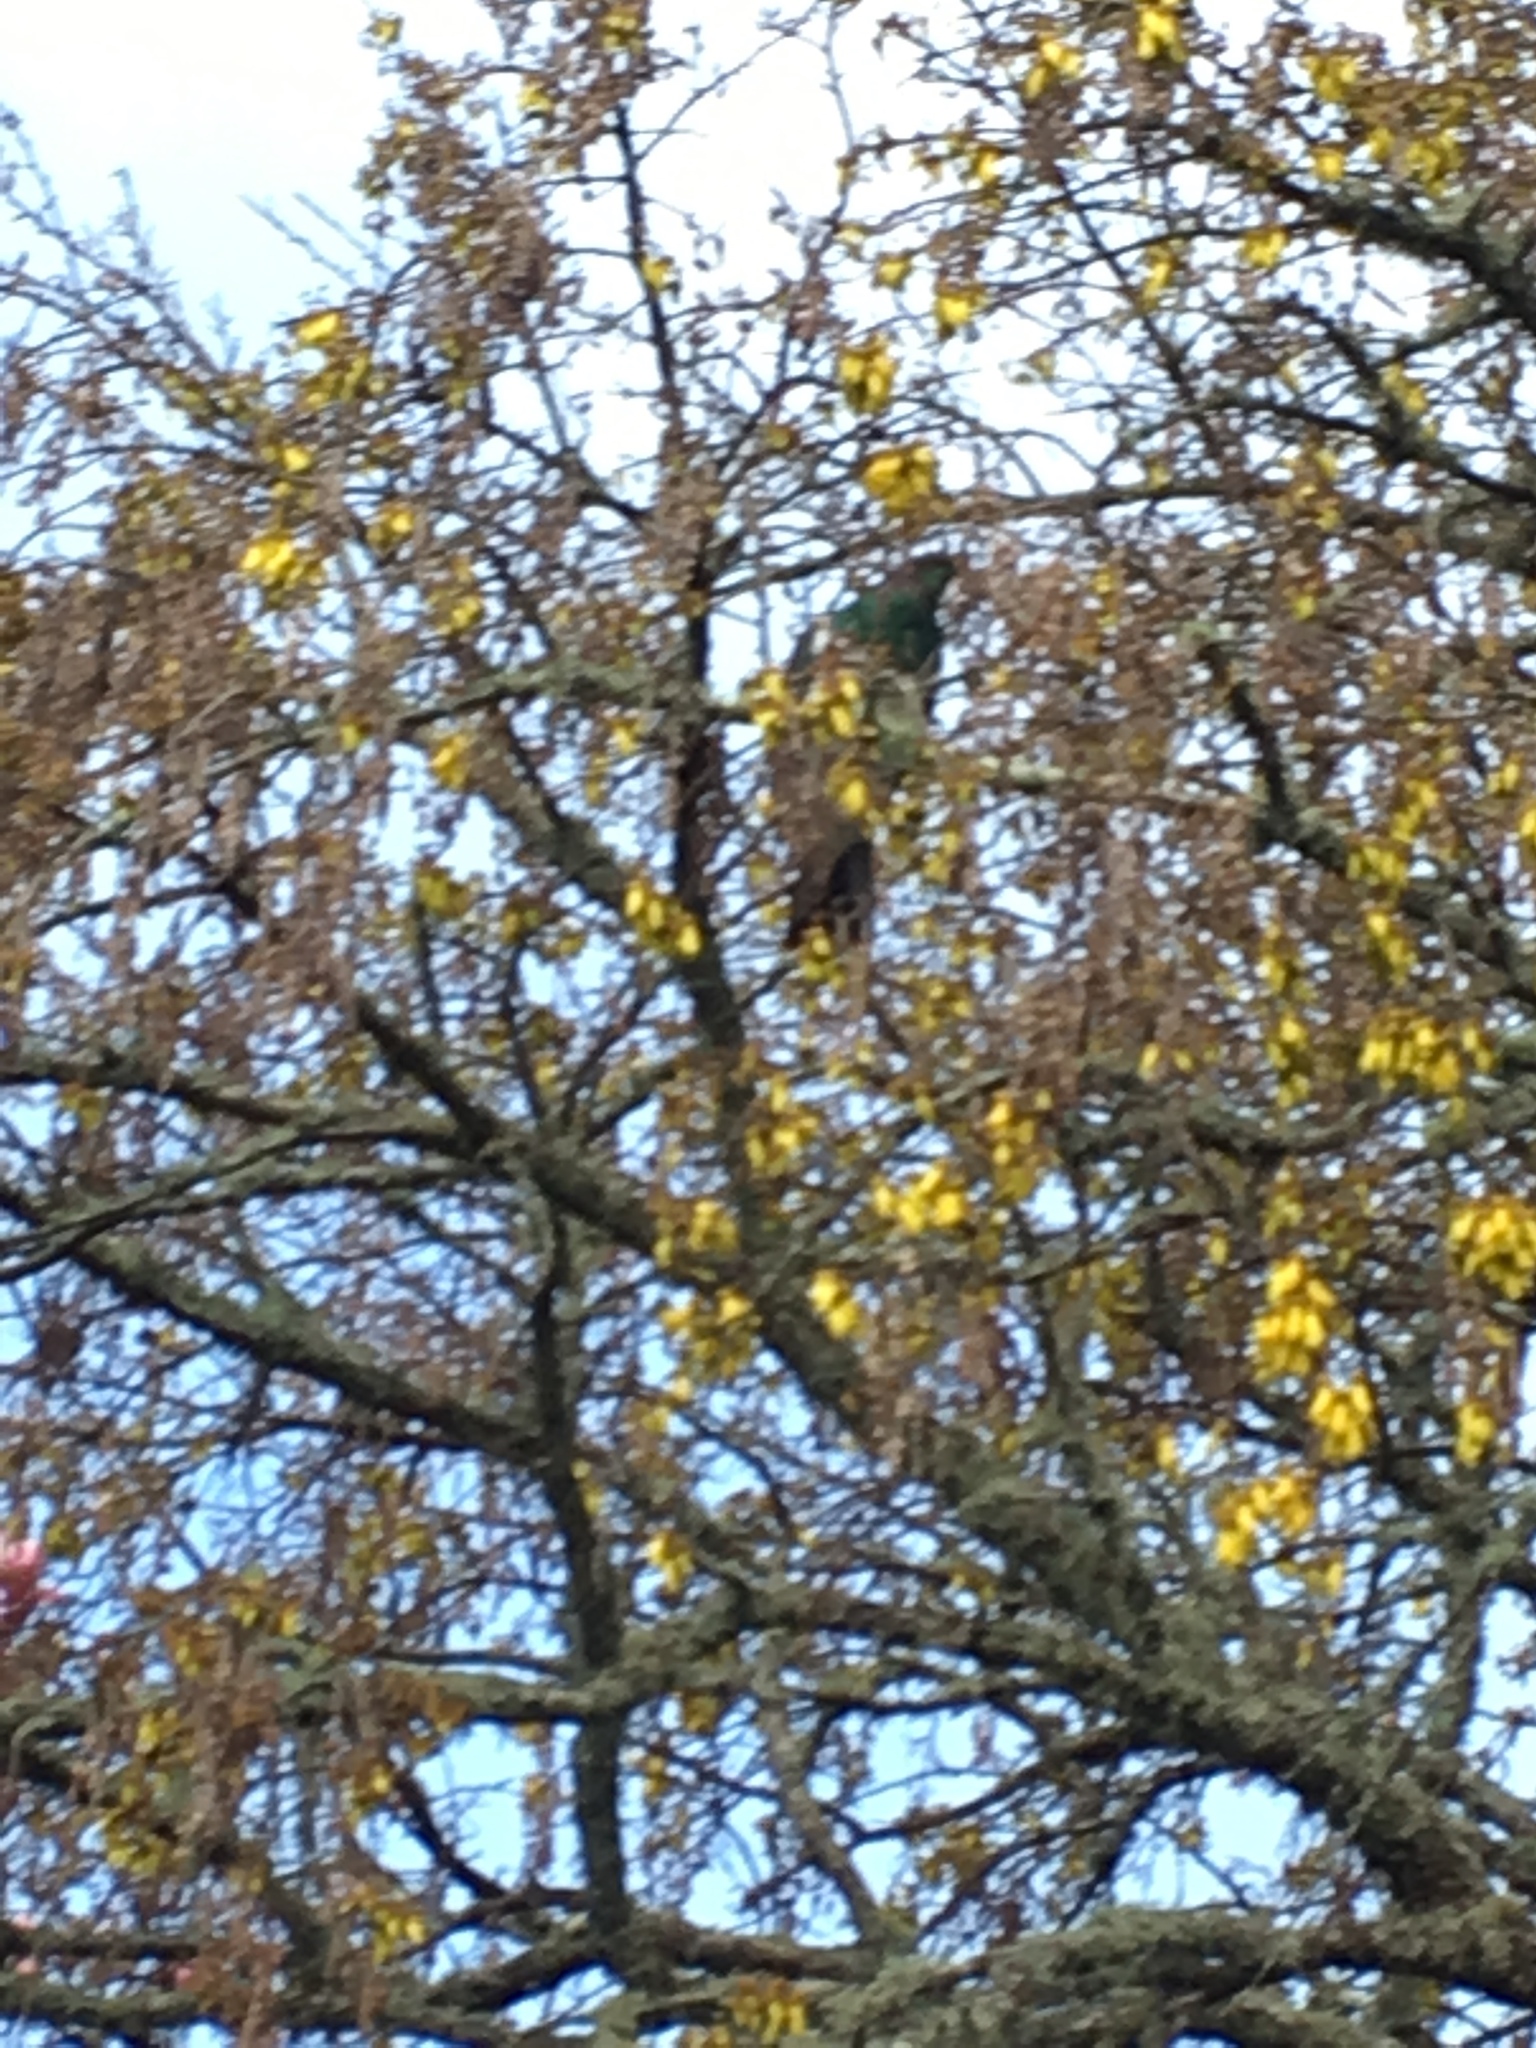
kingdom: Animalia
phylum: Chordata
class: Aves
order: Columbiformes
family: Columbidae
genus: Hemiphaga
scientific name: Hemiphaga novaeseelandiae
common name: New zealand pigeon
